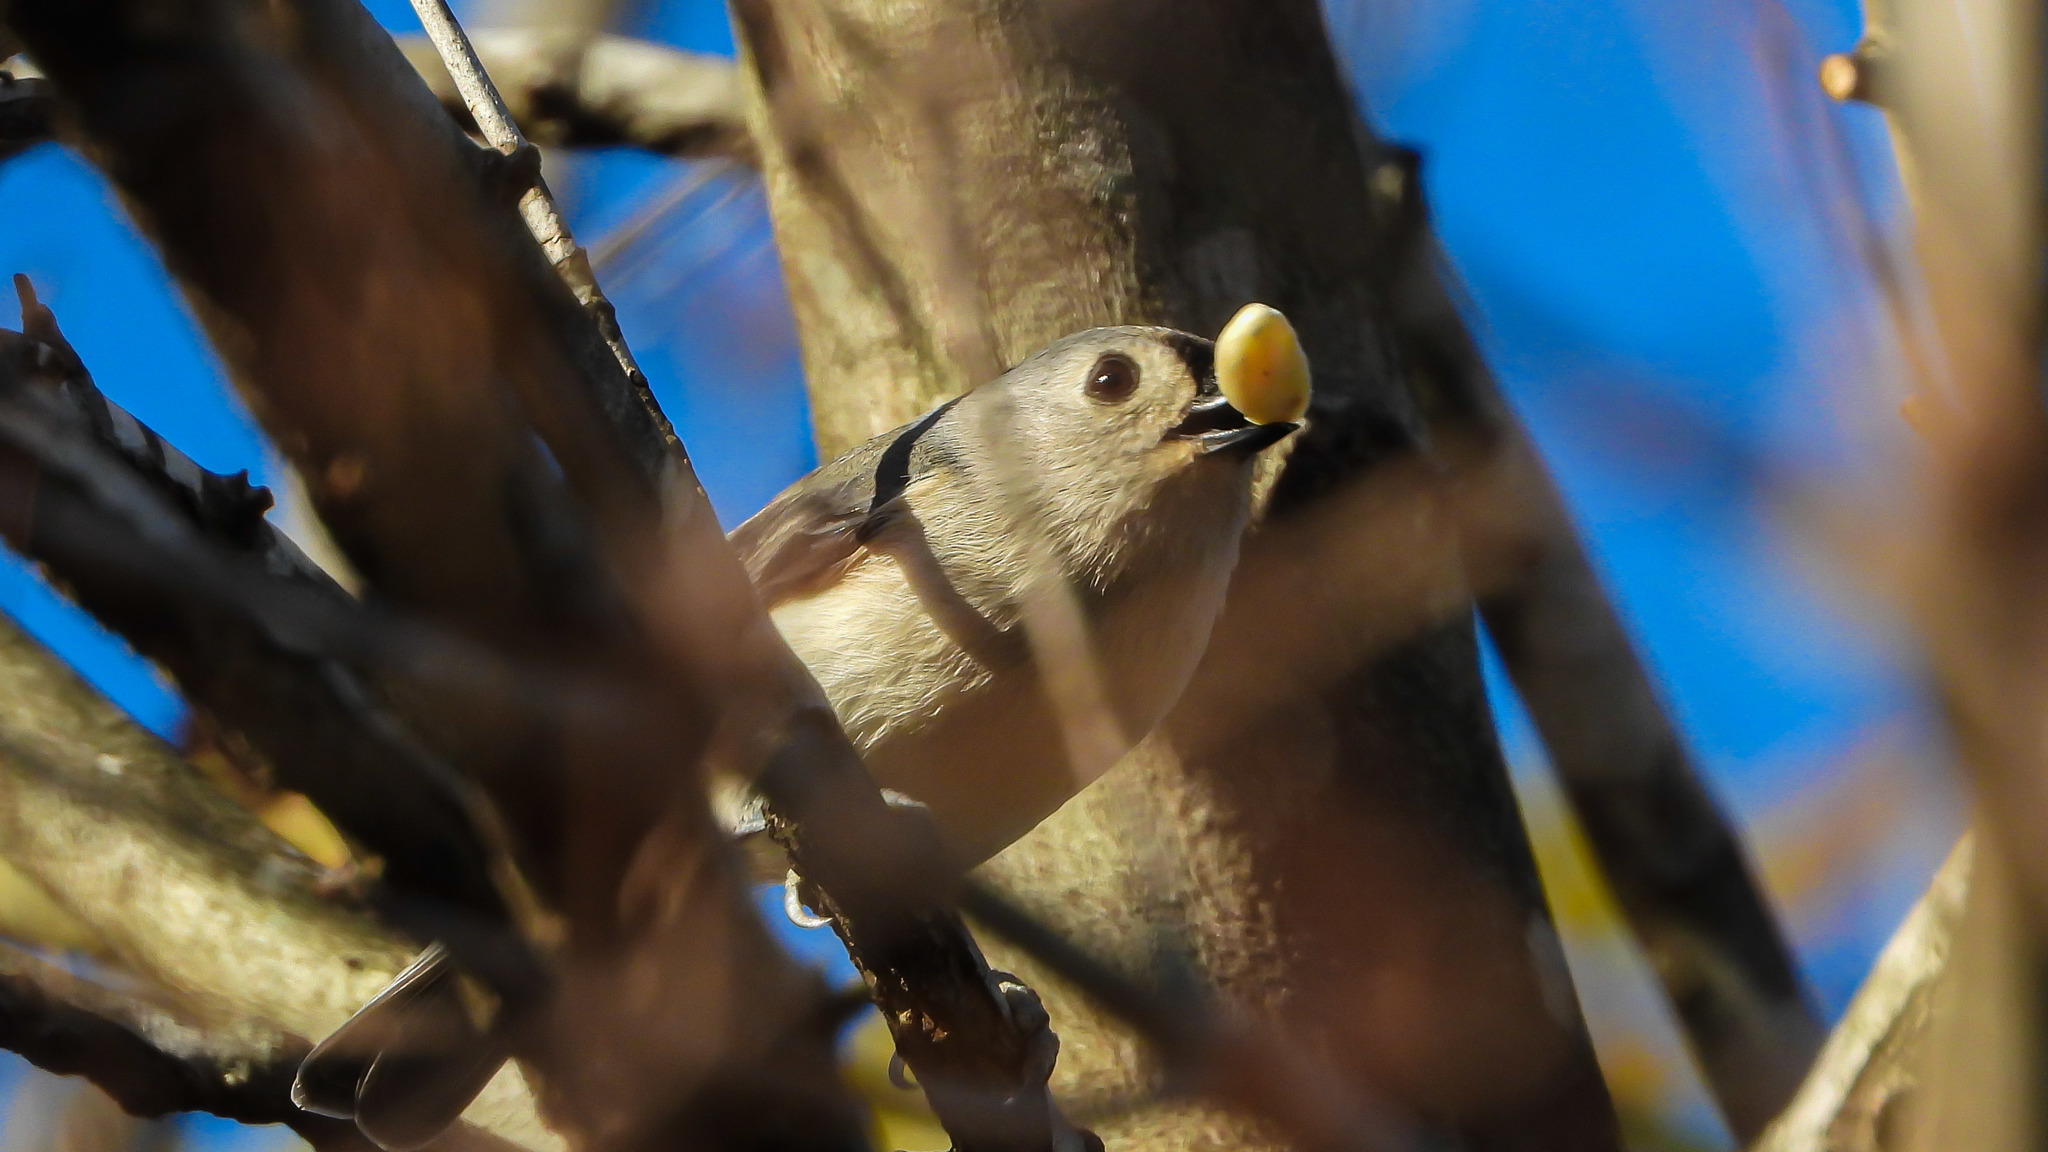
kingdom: Animalia
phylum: Chordata
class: Aves
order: Passeriformes
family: Paridae
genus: Baeolophus
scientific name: Baeolophus bicolor
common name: Tufted titmouse
